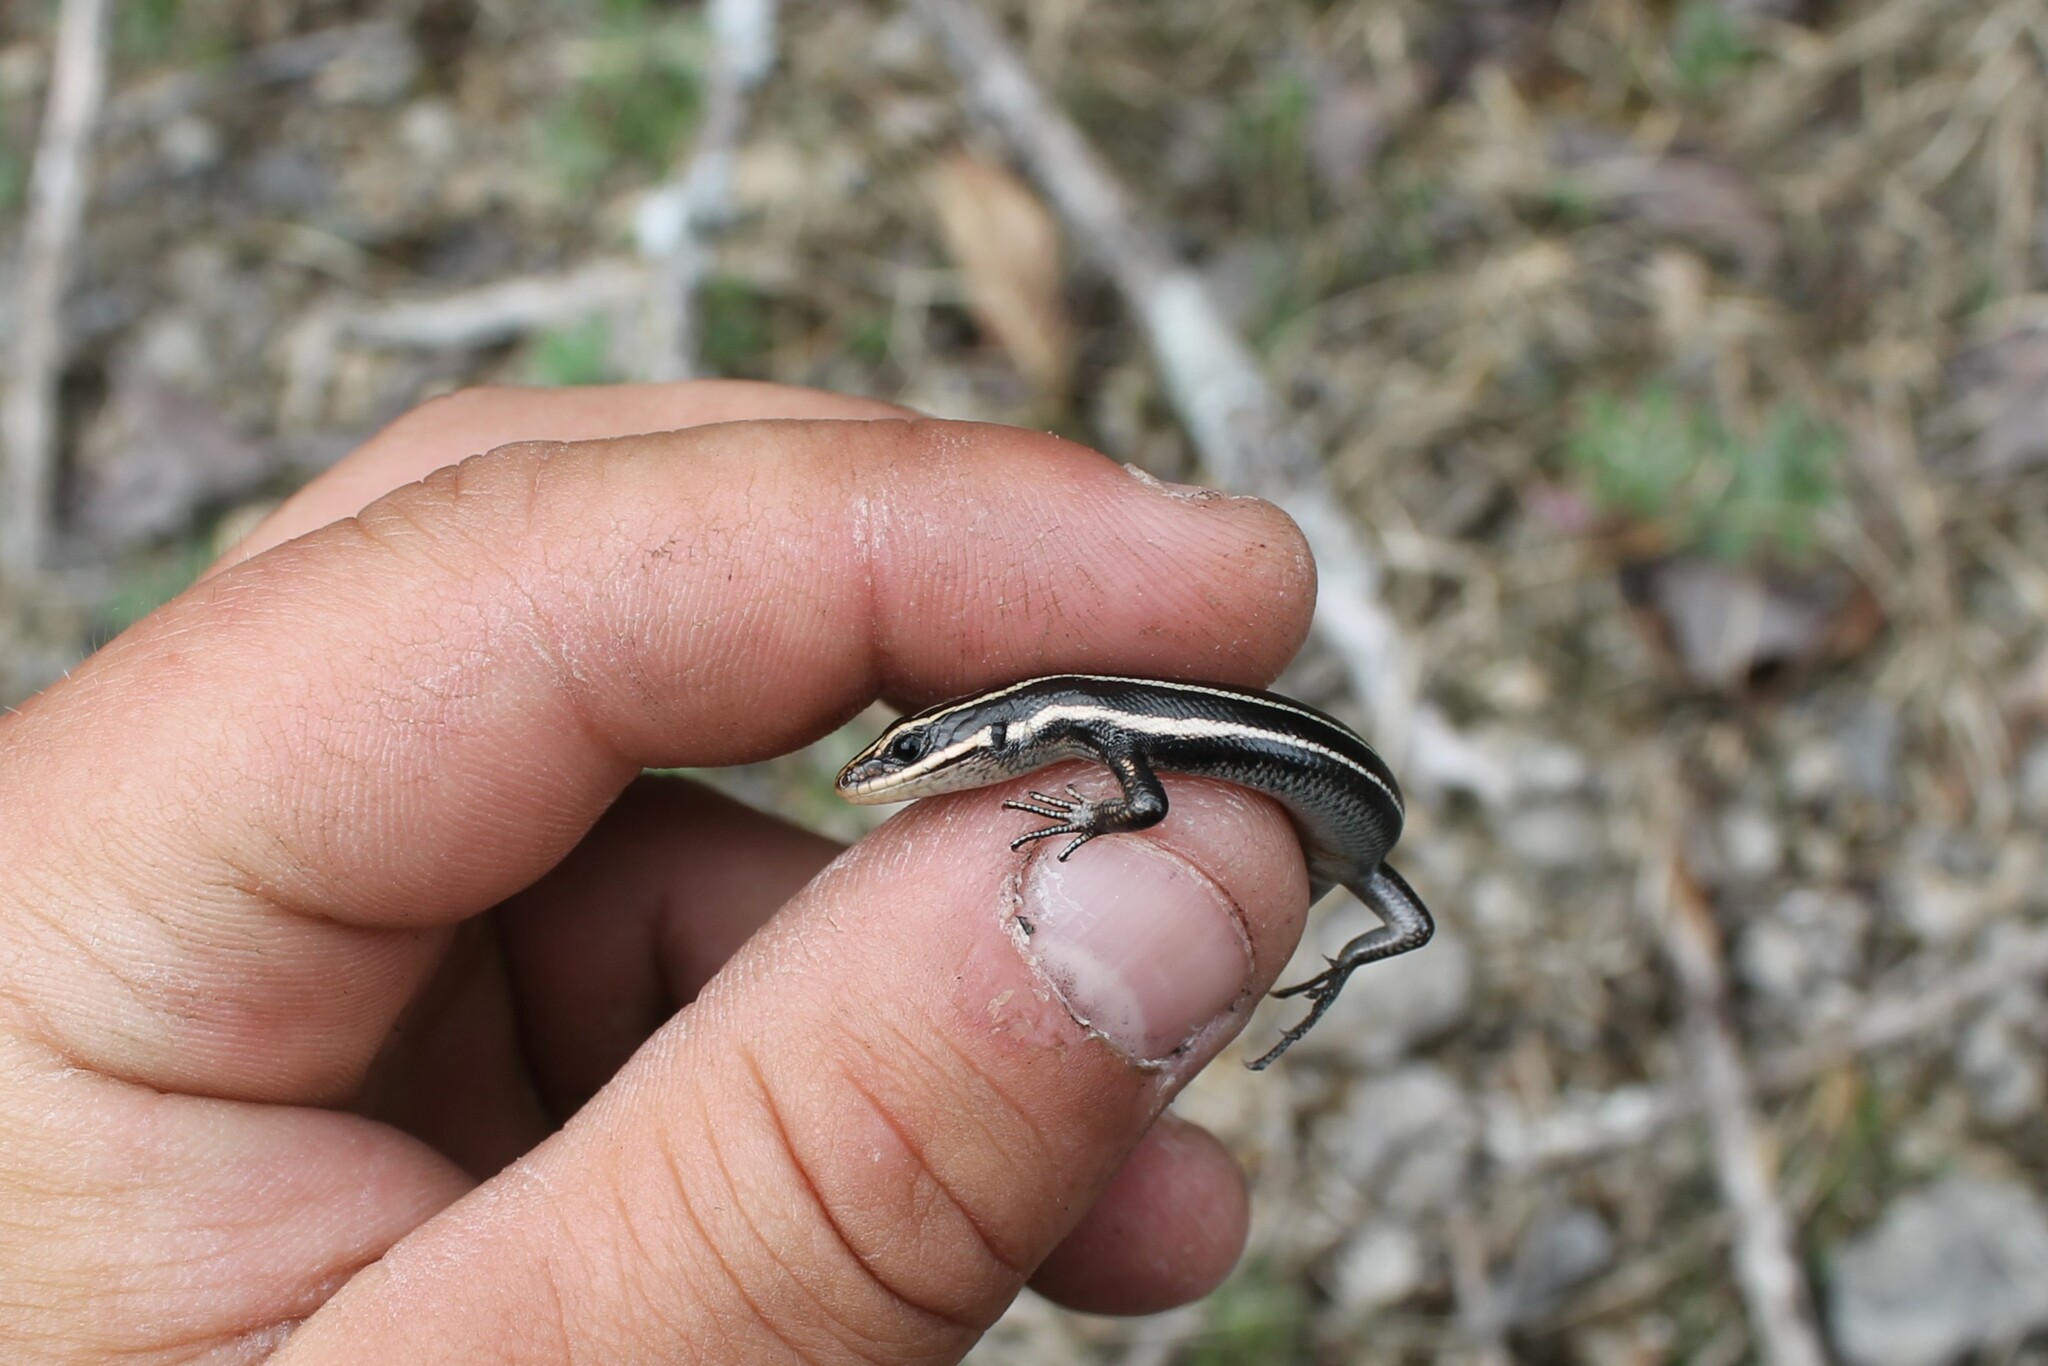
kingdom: Animalia
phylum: Chordata
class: Squamata
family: Scincidae
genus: Plestiodon
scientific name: Plestiodon fasciatus
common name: Five-lined skink
